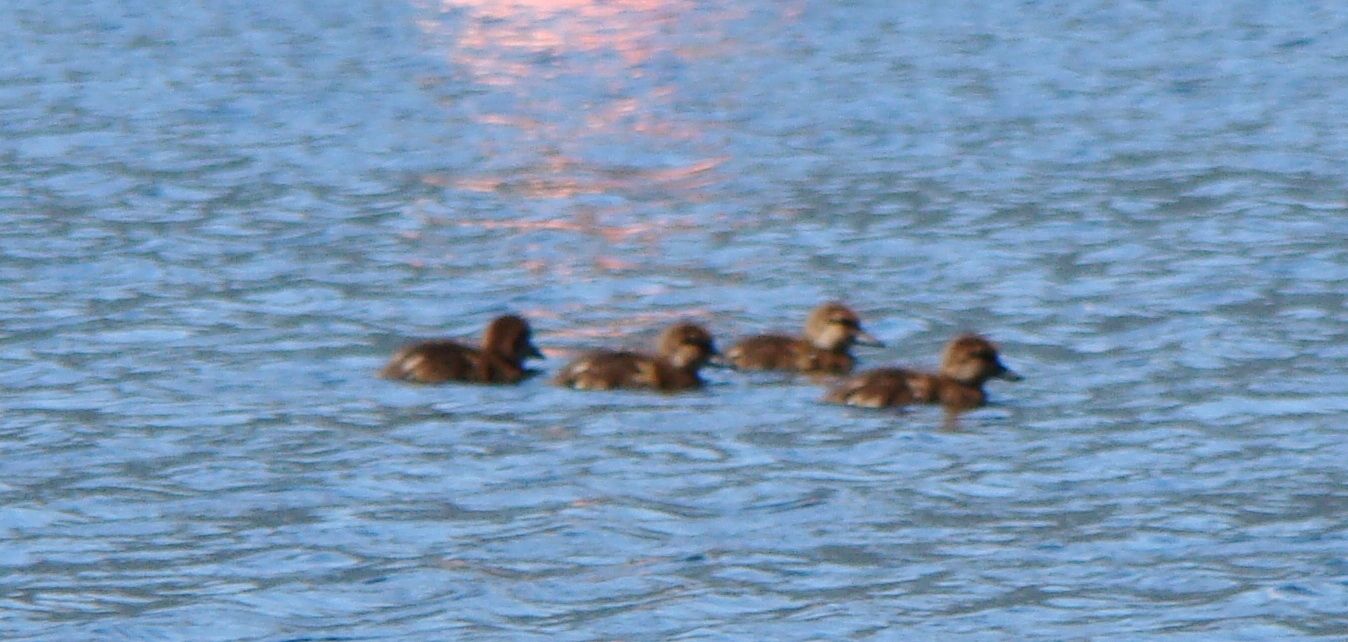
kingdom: Animalia
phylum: Chordata
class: Aves
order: Anseriformes
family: Anatidae
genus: Aythya
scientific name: Aythya novaeseelandiae
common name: New zealand scaup
